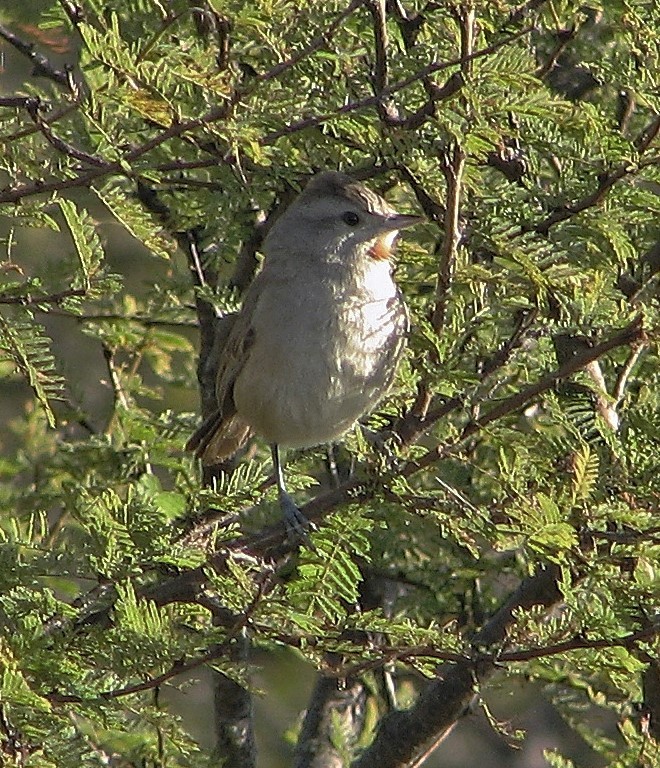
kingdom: Animalia
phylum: Chordata
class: Aves
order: Passeriformes
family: Furnariidae
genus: Asthenes
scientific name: Asthenes baeri
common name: Short-billed canastero
